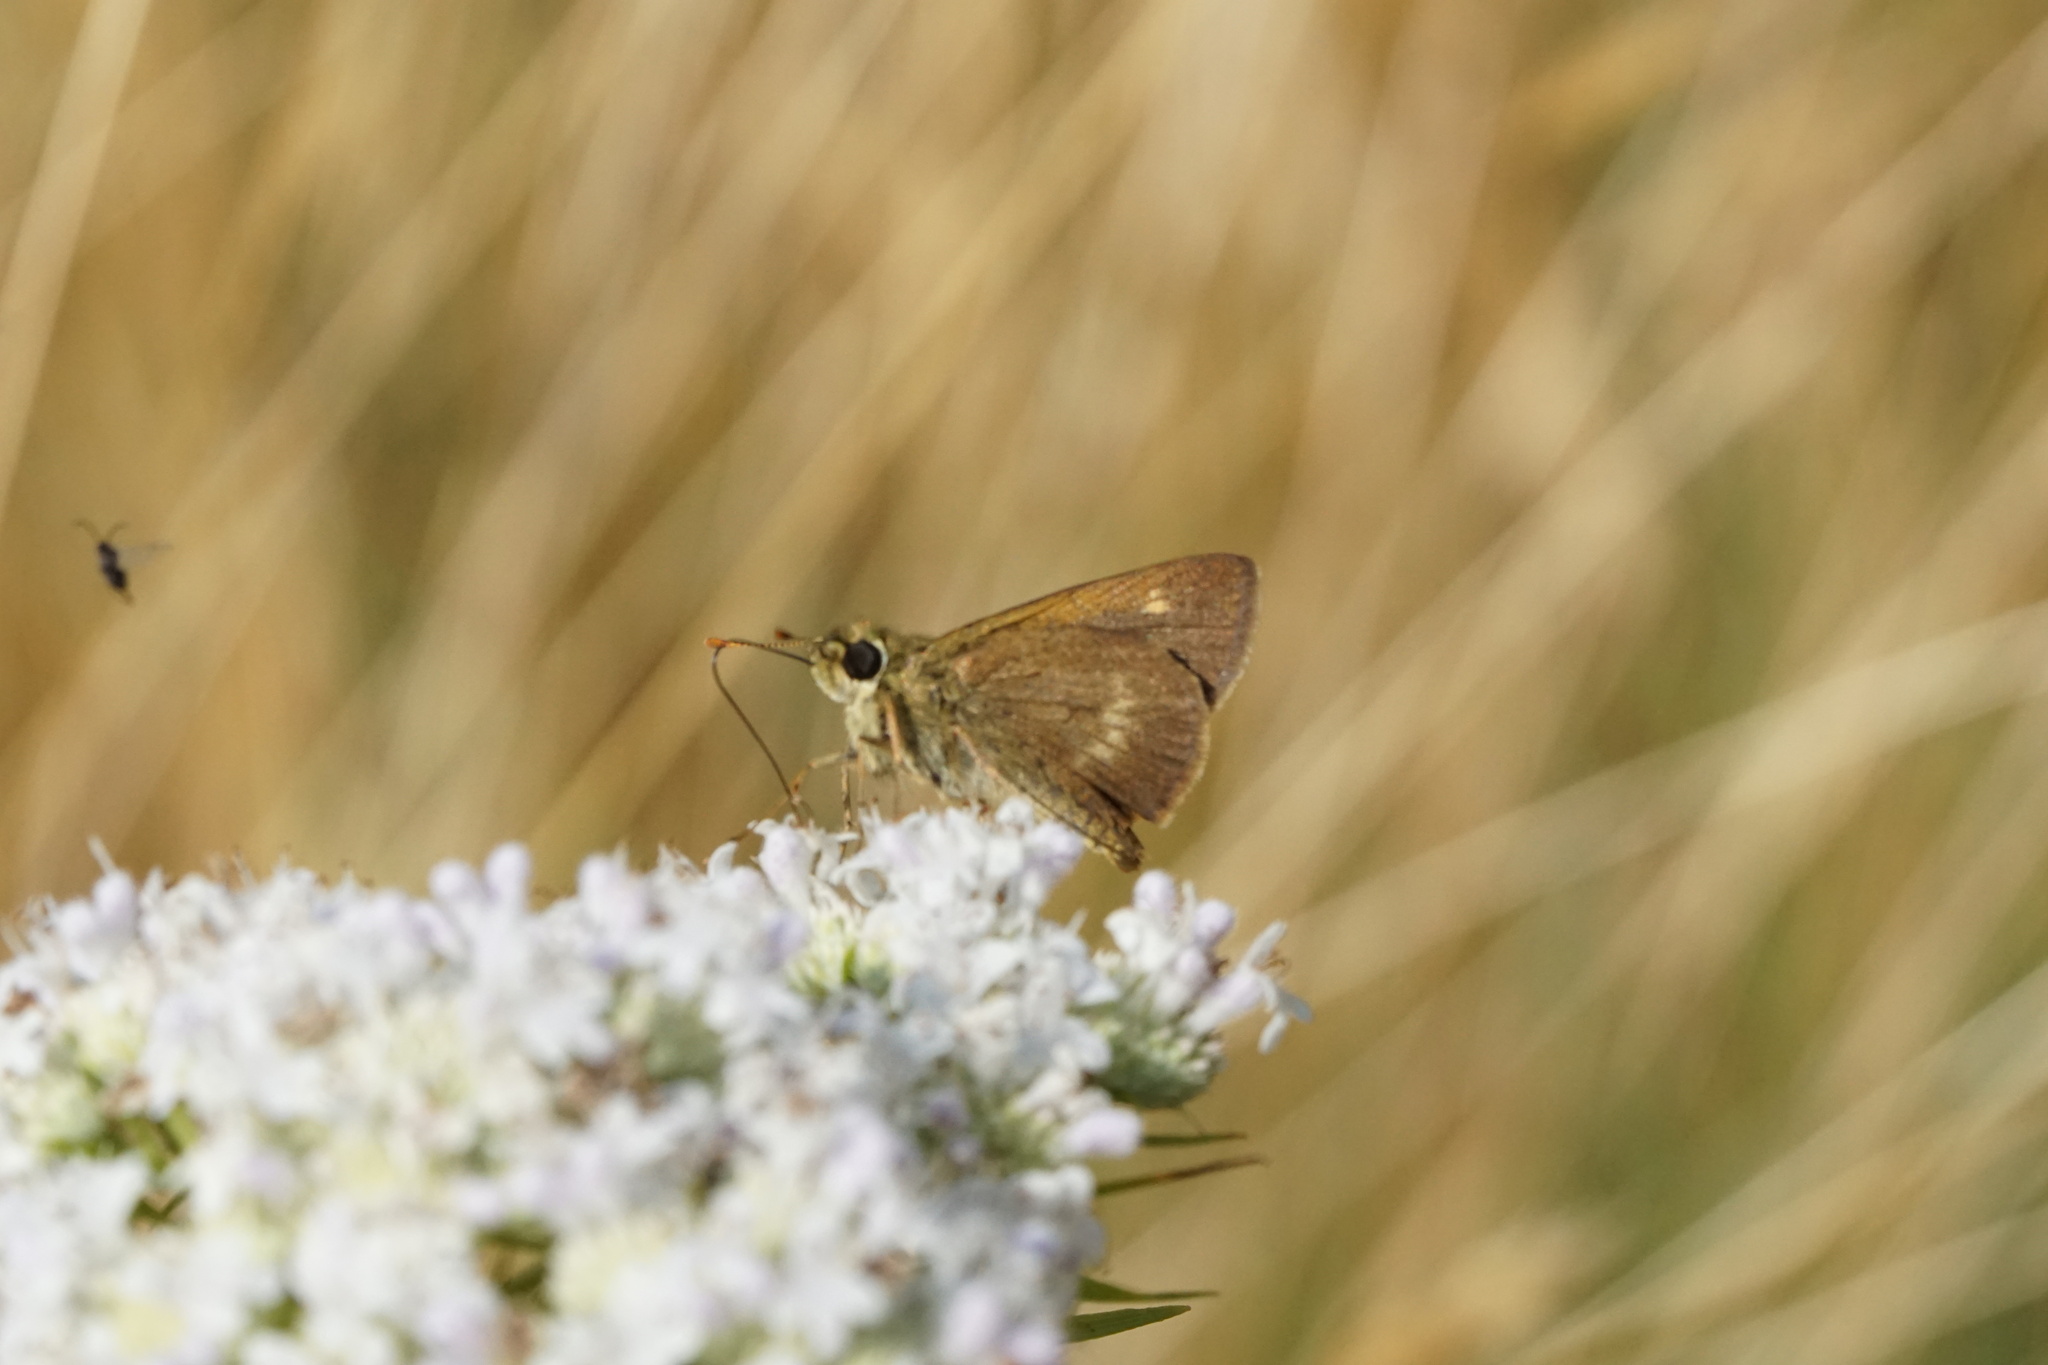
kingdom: Animalia
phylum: Arthropoda
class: Insecta
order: Lepidoptera
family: Hesperiidae
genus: Polites
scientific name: Polites egeremet
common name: Northern broken-dash
